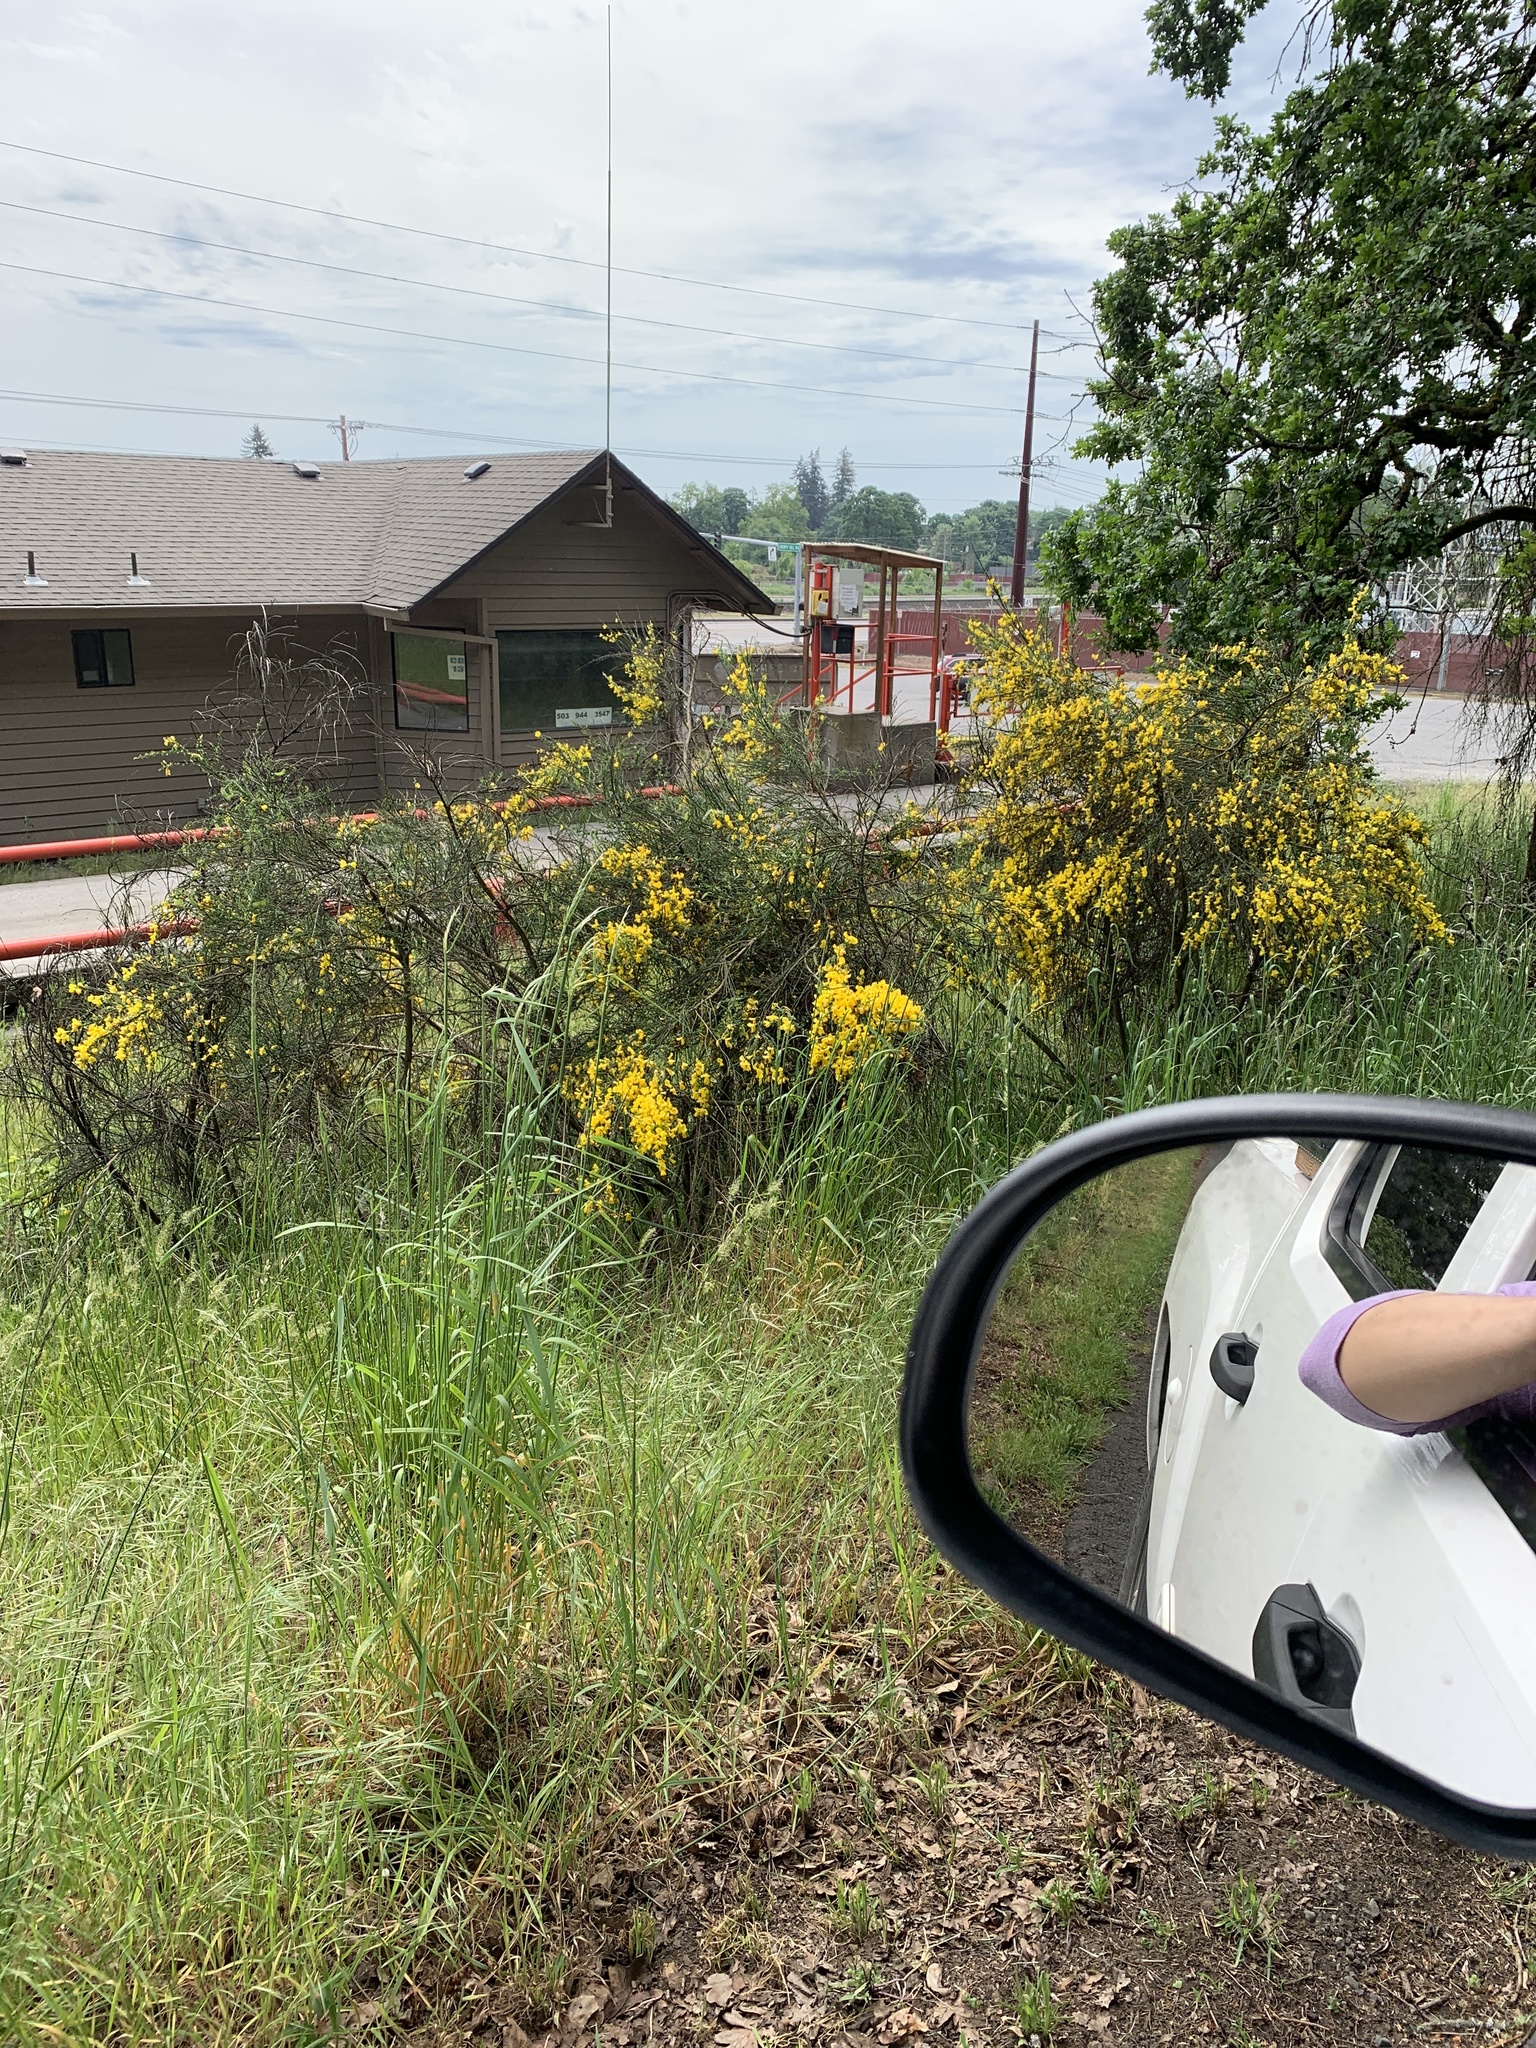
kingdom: Plantae
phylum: Tracheophyta
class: Magnoliopsida
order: Fabales
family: Fabaceae
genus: Cytisus
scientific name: Cytisus scoparius
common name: Scotch broom
